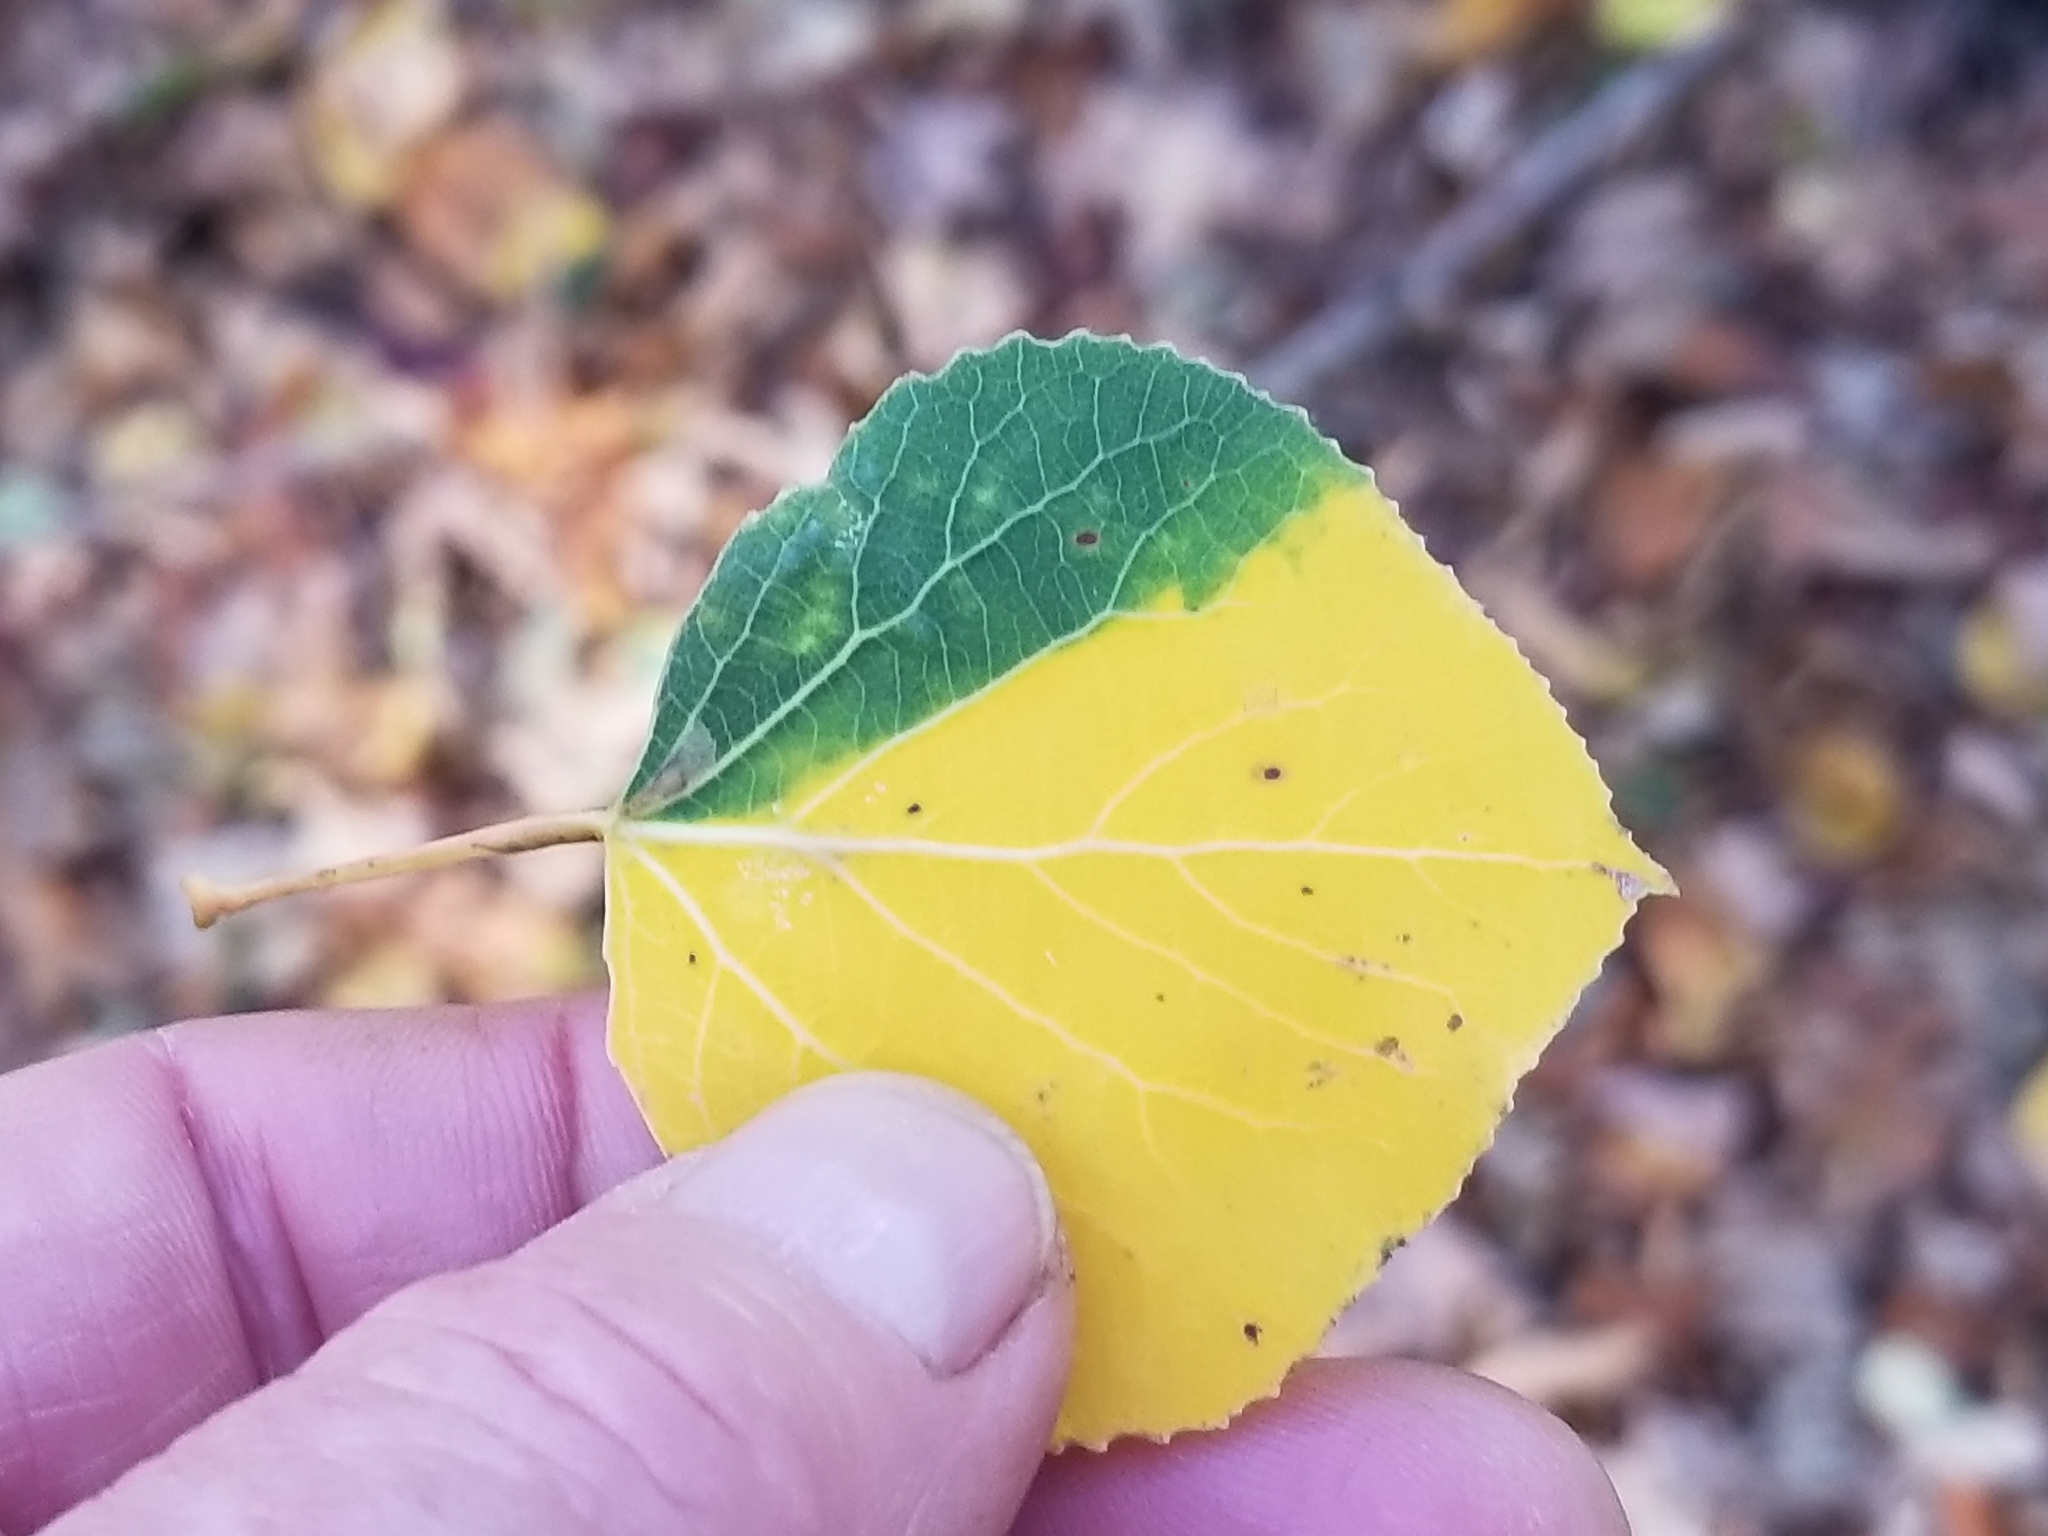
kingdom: Plantae
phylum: Tracheophyta
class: Magnoliopsida
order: Malpighiales
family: Salicaceae
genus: Populus
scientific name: Populus tremuloides
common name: Quaking aspen
